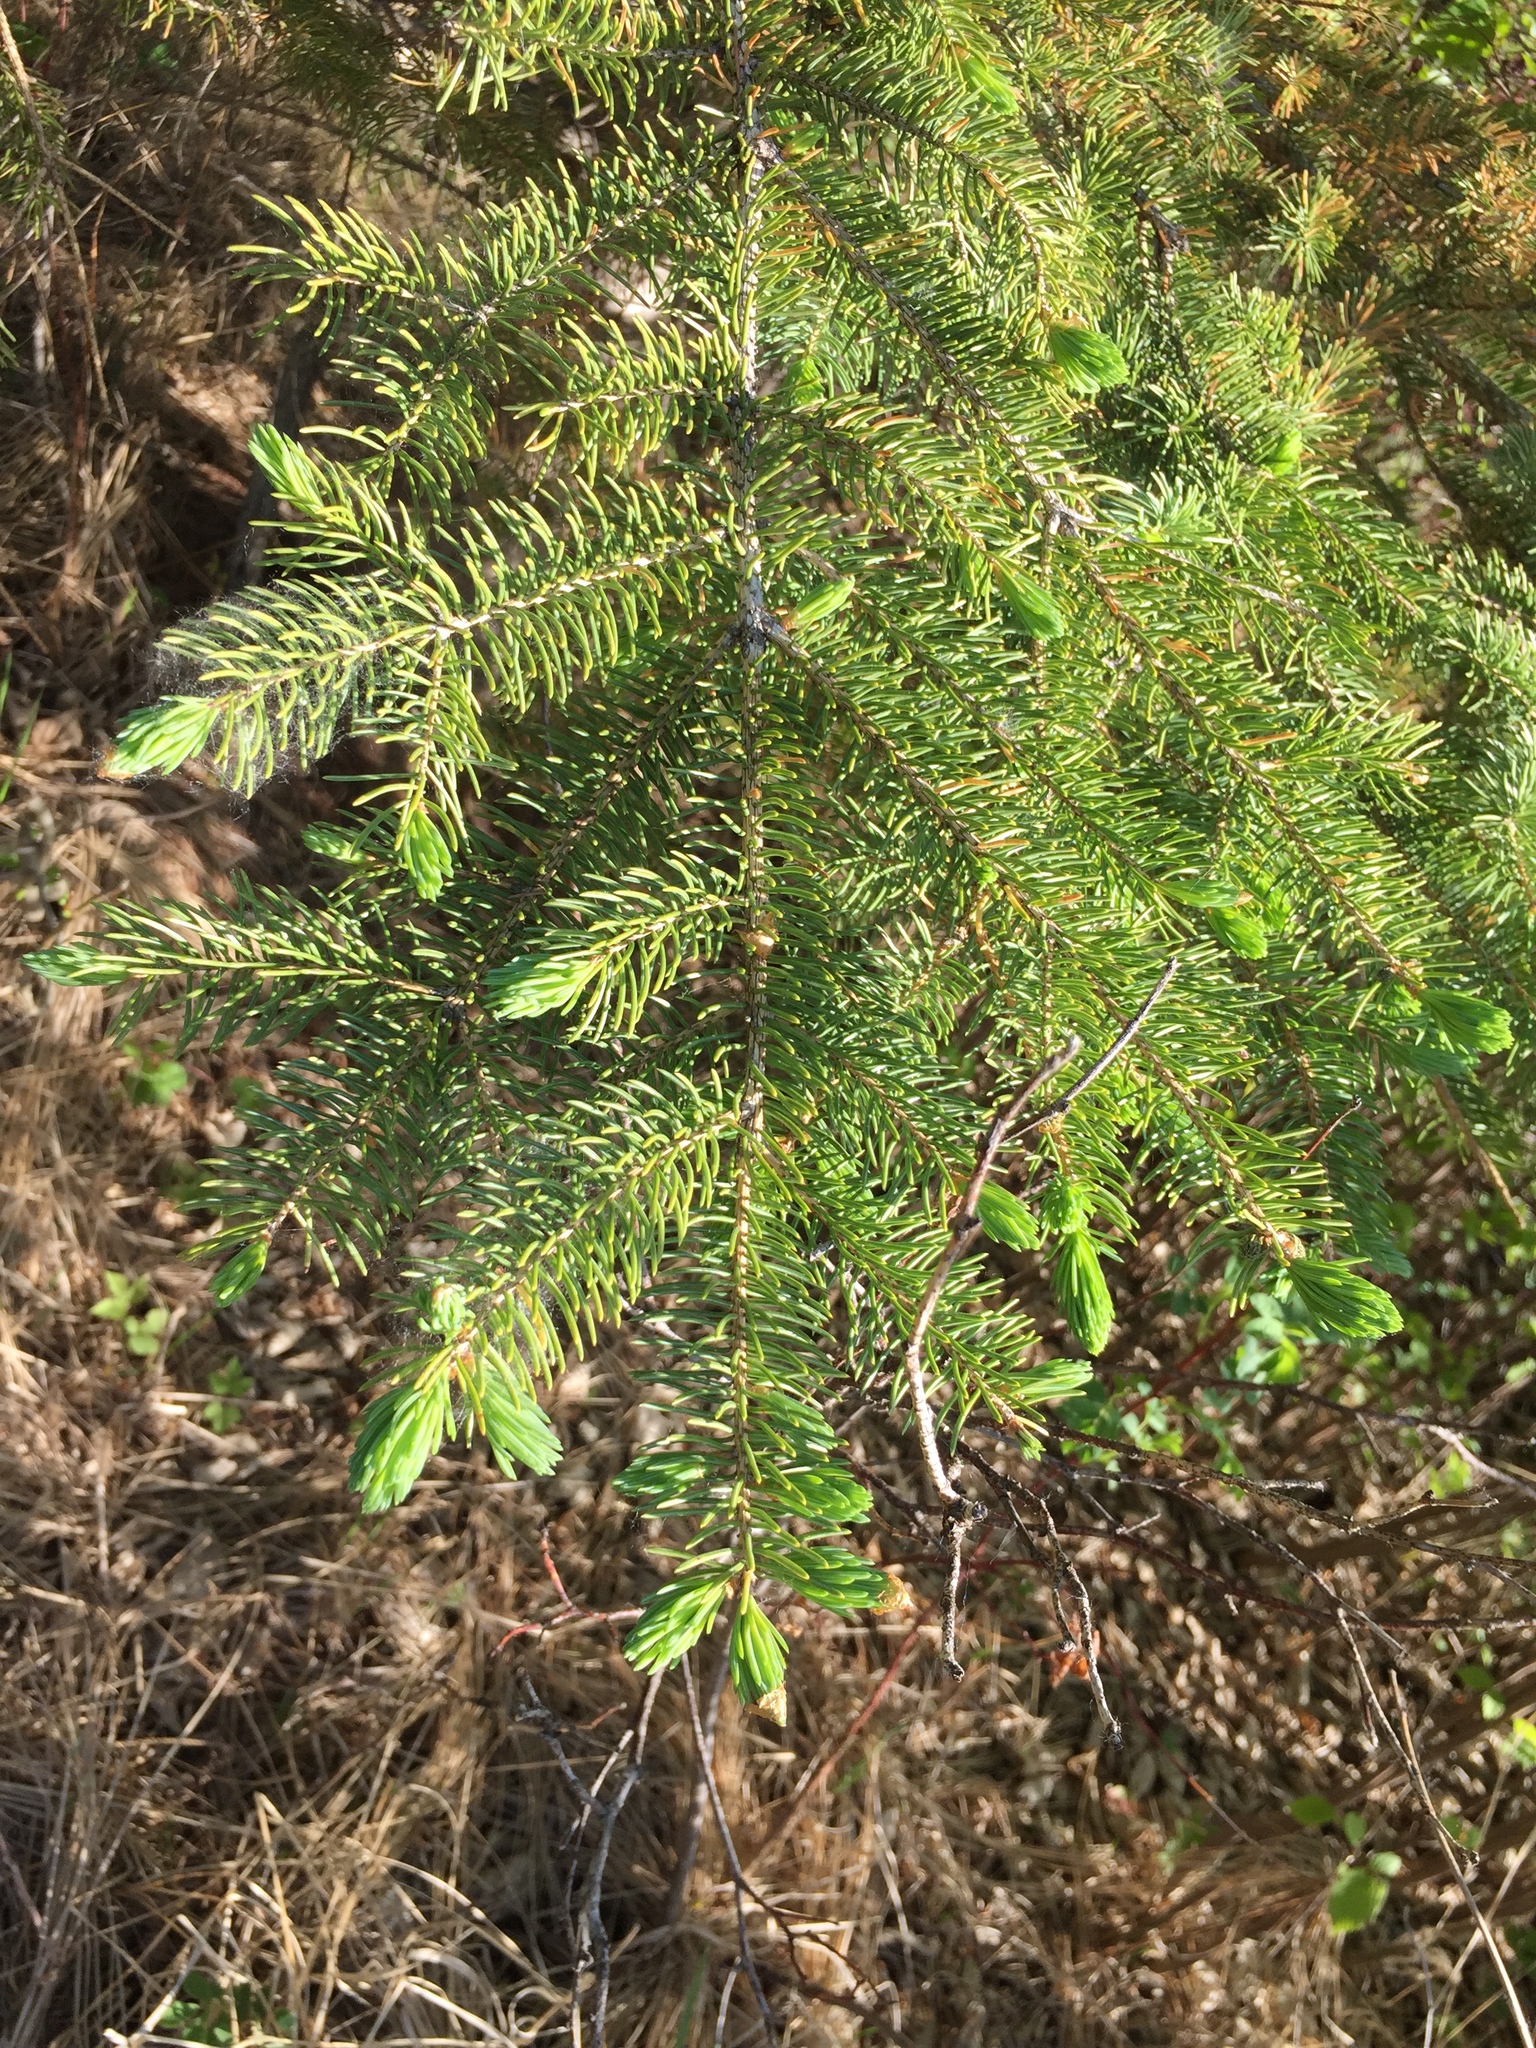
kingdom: Plantae
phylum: Tracheophyta
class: Pinopsida
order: Pinales
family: Pinaceae
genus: Picea
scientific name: Picea glauca
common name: White spruce
